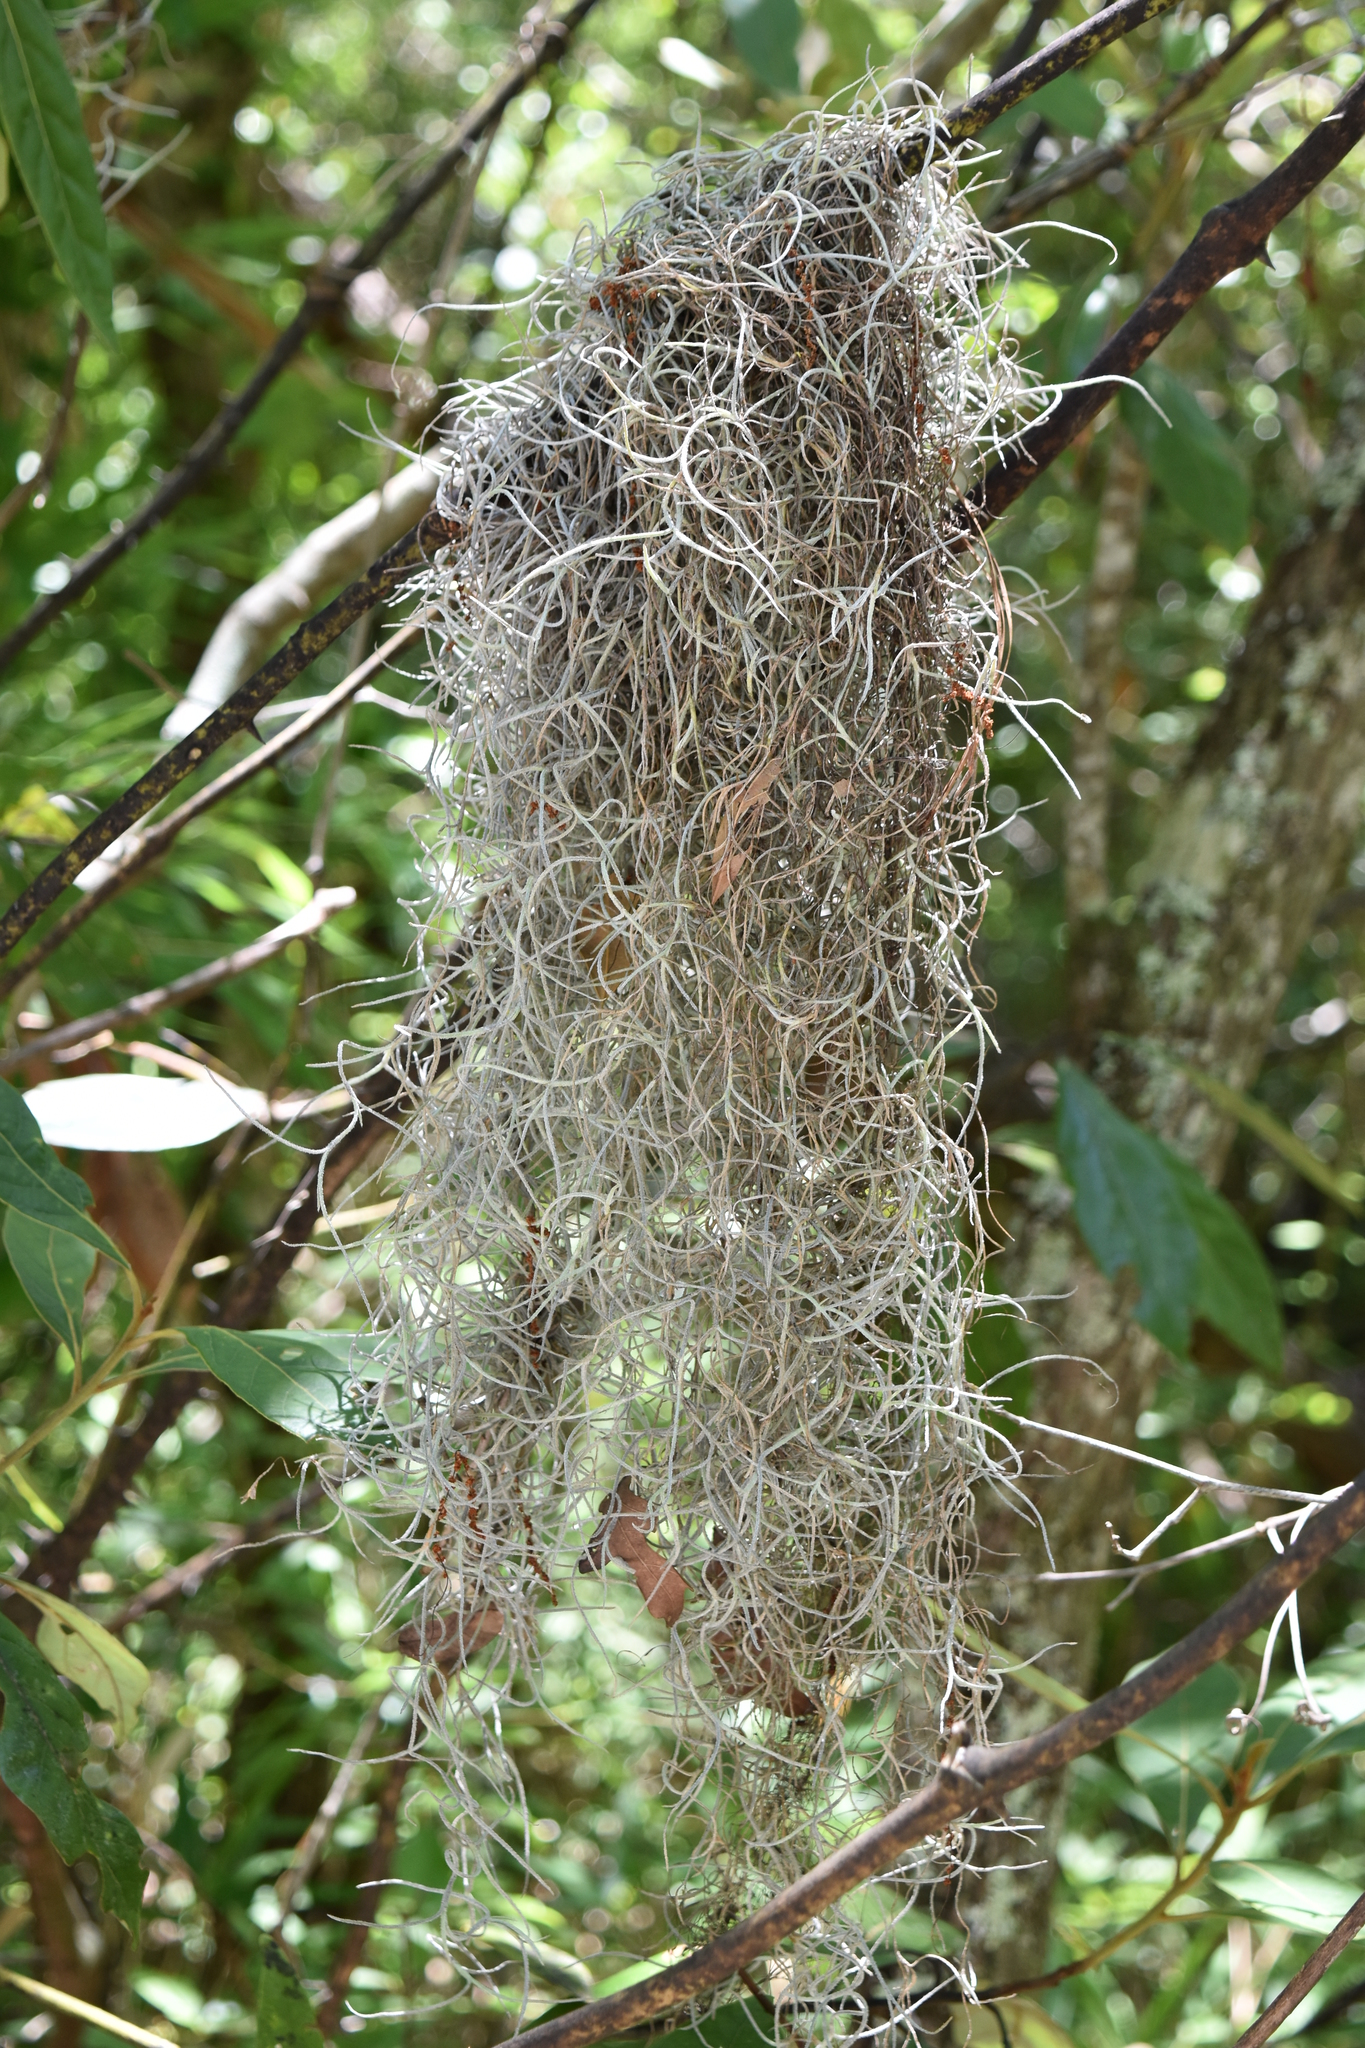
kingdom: Plantae
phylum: Tracheophyta
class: Liliopsida
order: Poales
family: Bromeliaceae
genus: Tillandsia
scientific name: Tillandsia usneoides
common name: Spanish moss
